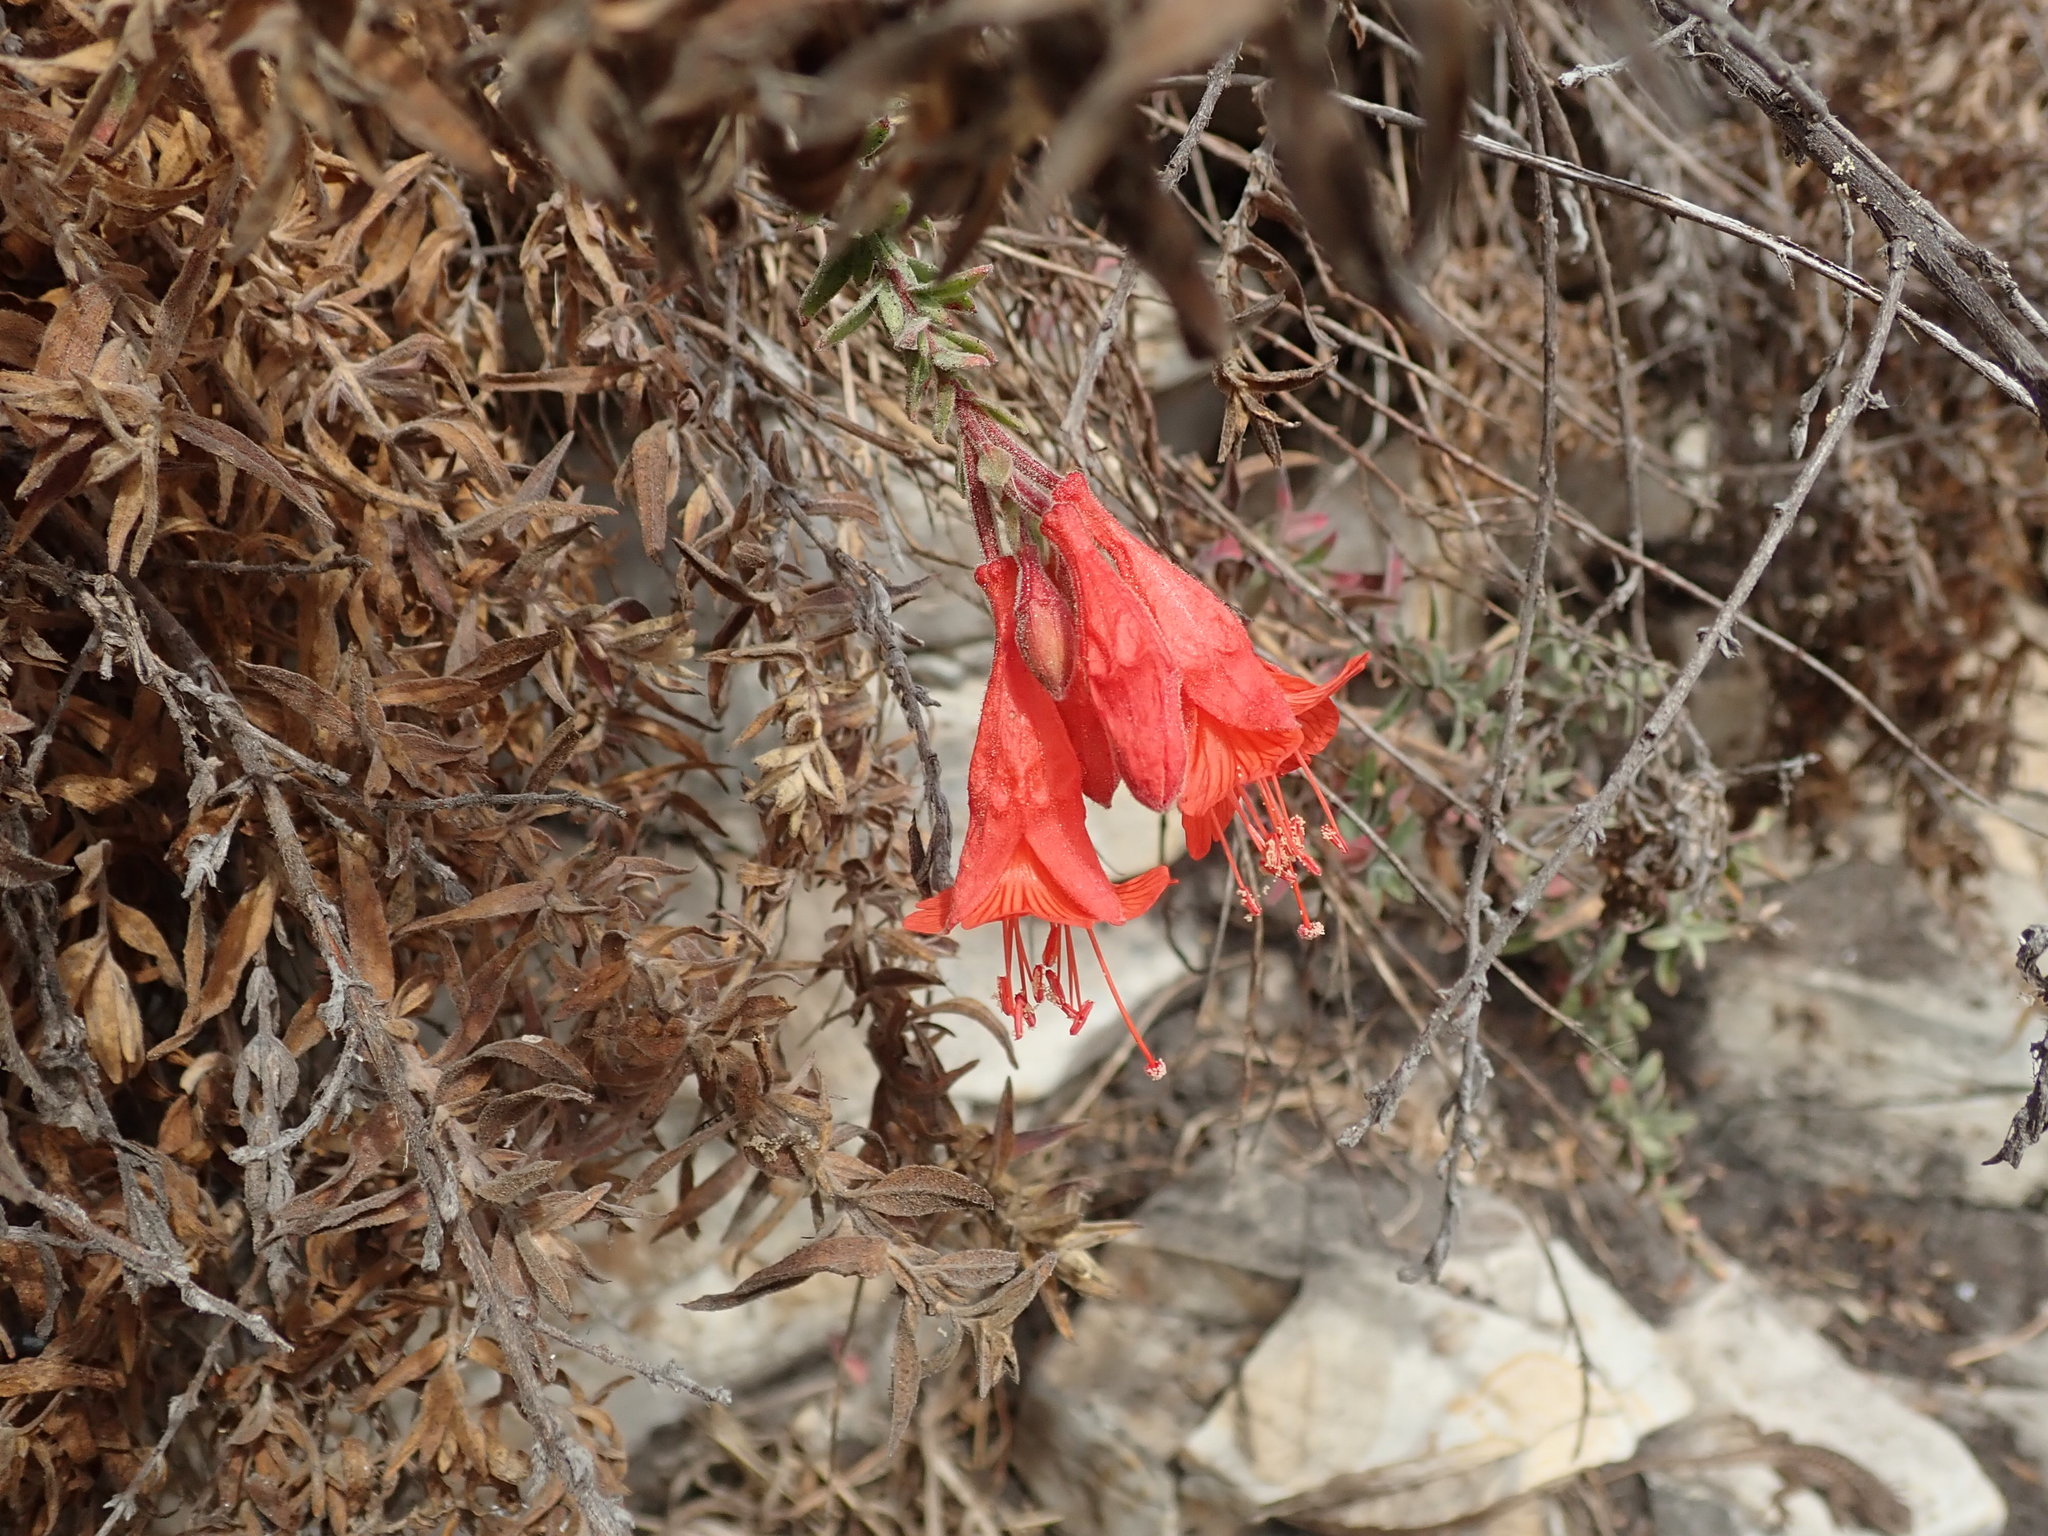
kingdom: Plantae
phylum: Tracheophyta
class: Magnoliopsida
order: Myrtales
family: Onagraceae
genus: Epilobium
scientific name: Epilobium canum
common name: California-fuchsia
